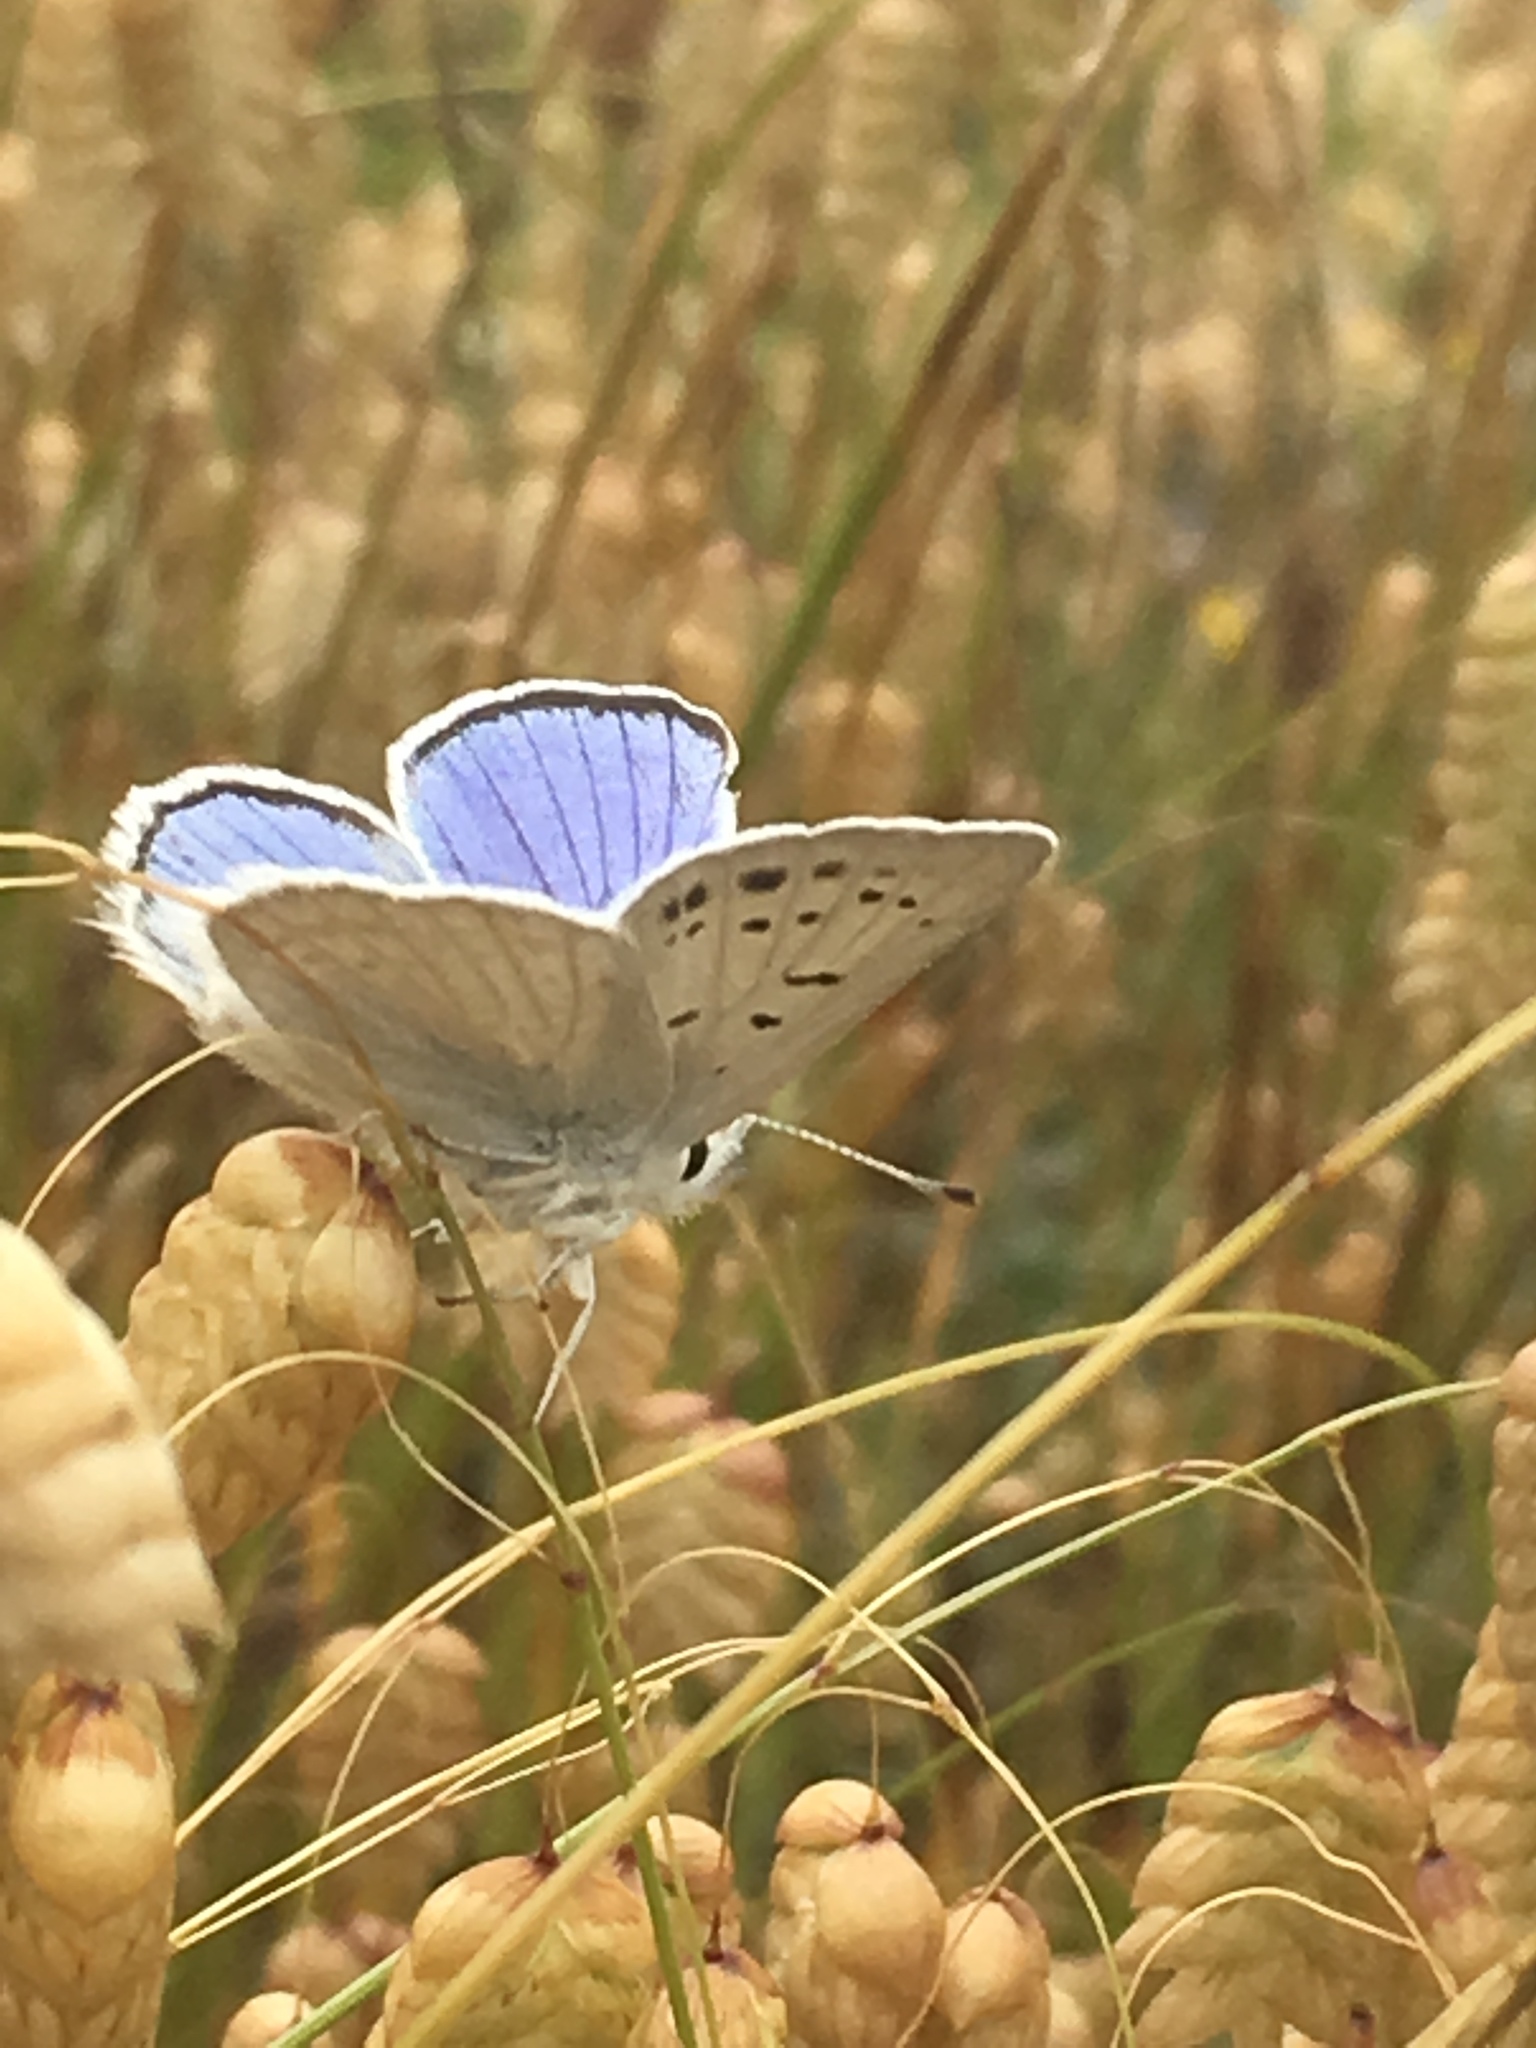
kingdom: Animalia
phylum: Arthropoda
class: Insecta
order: Lepidoptera
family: Lycaenidae
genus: Tharsalea
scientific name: Tharsalea heteronea
